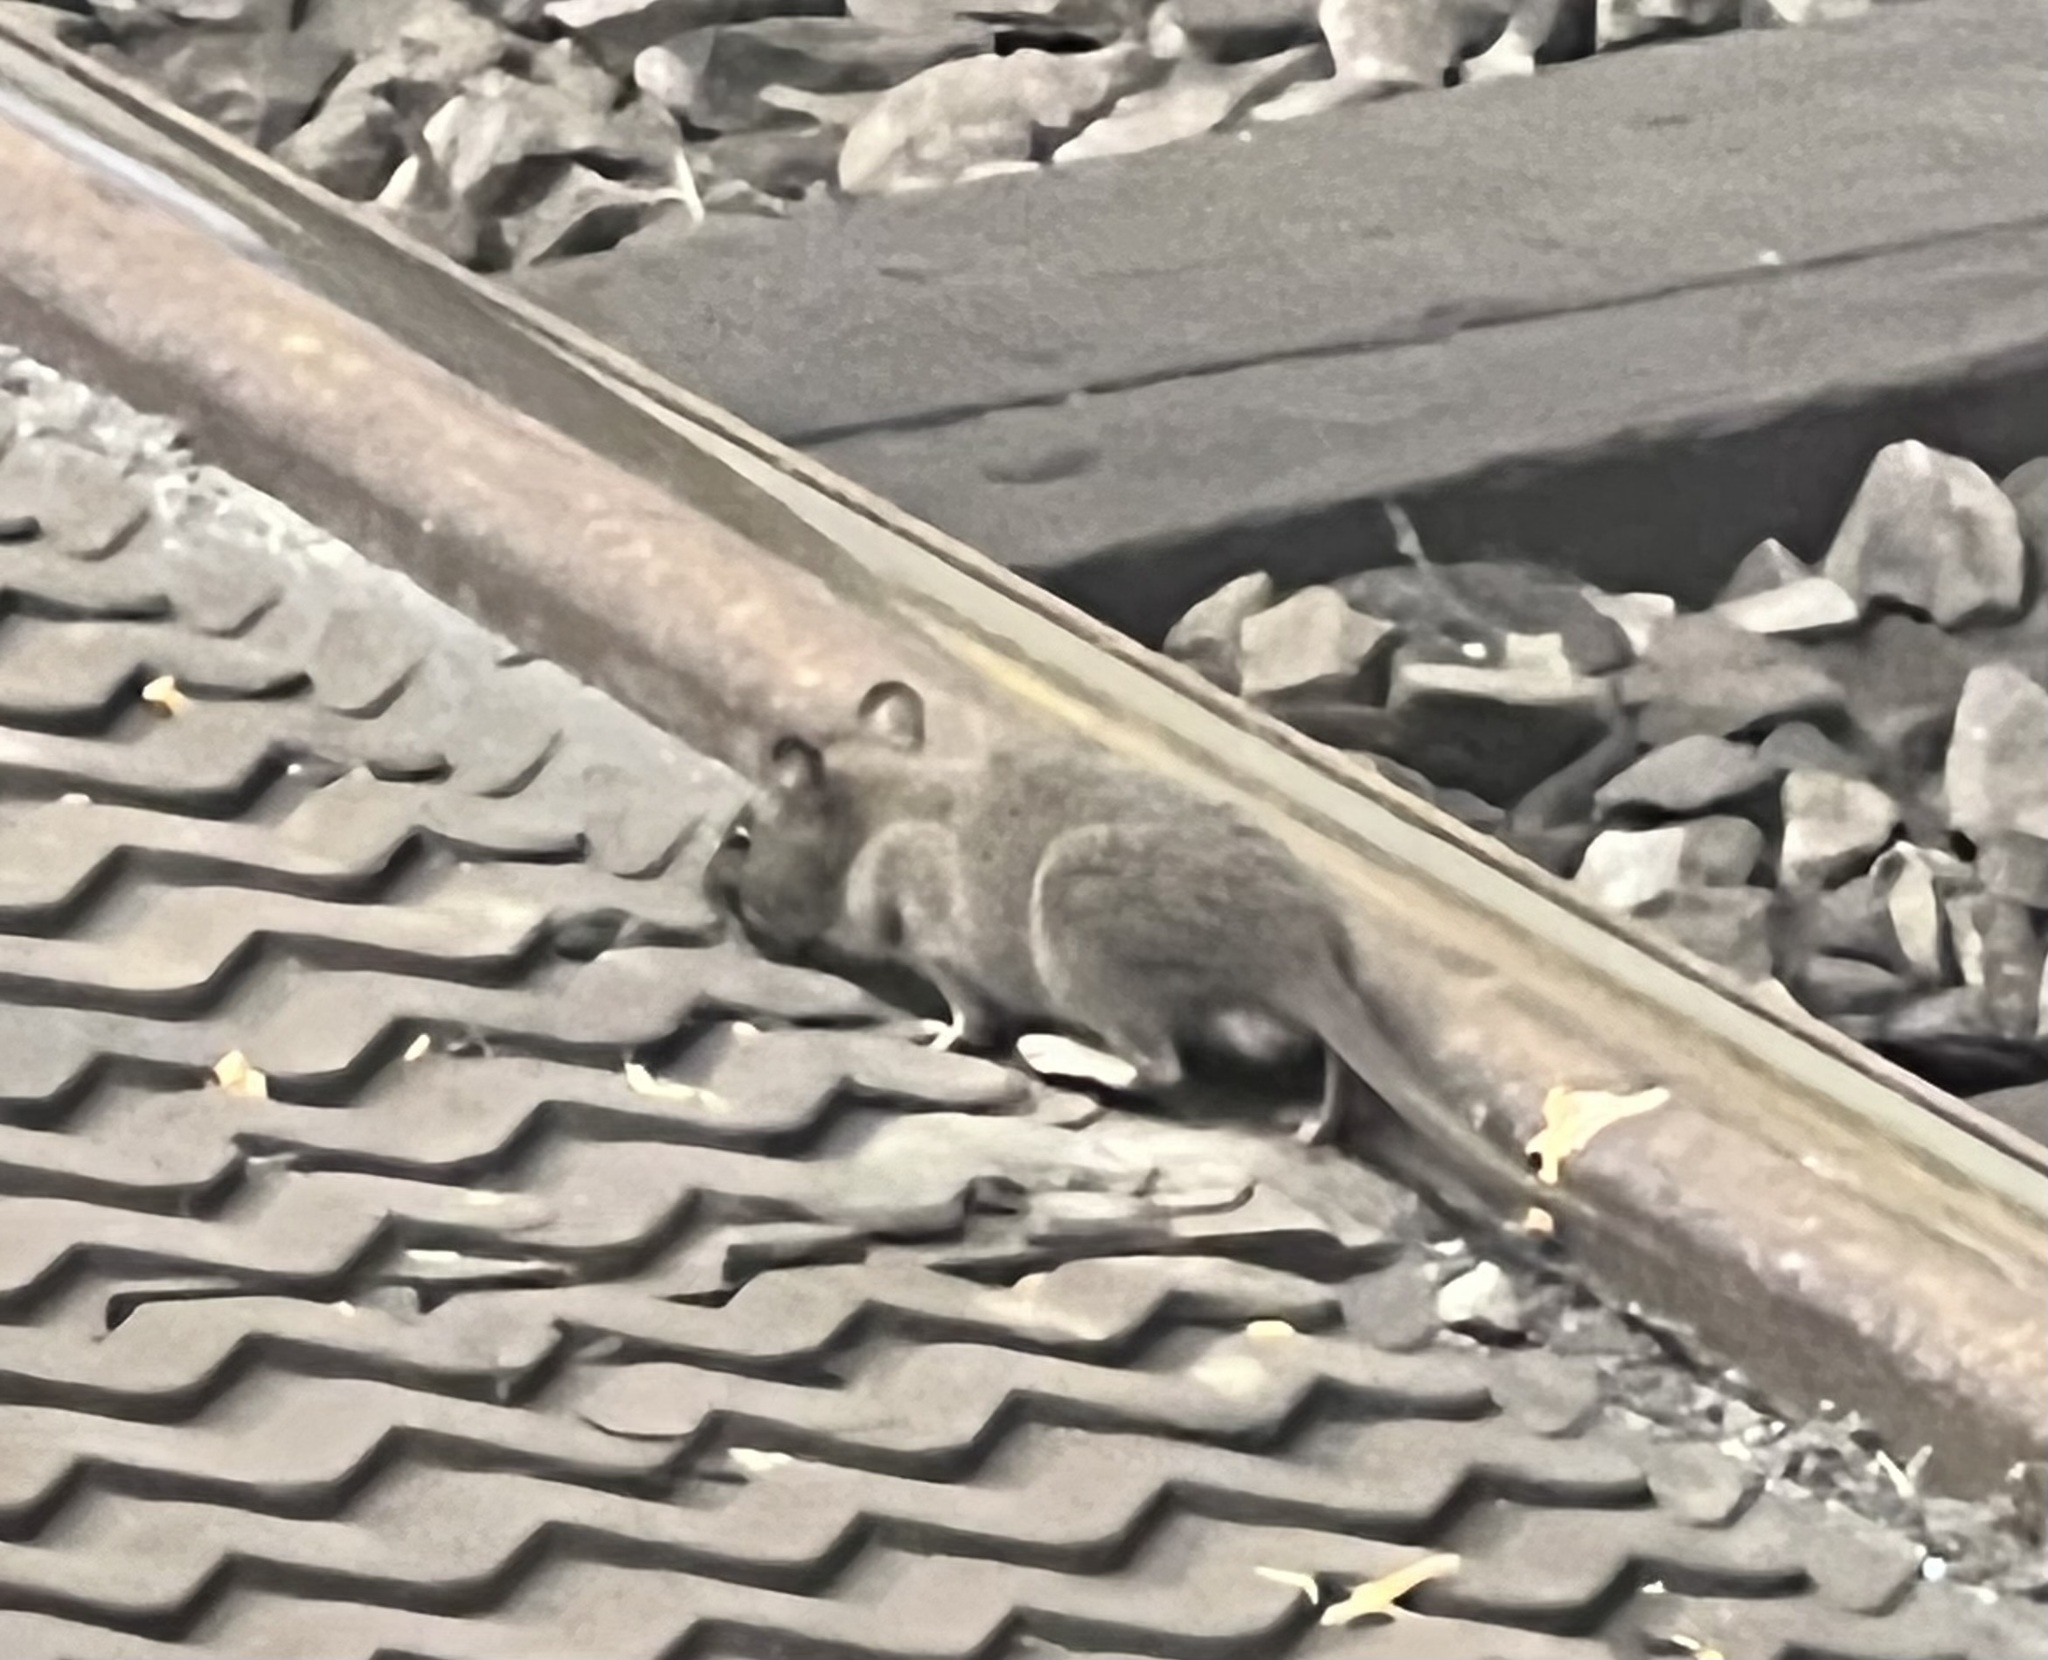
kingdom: Animalia
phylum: Chordata
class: Mammalia
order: Rodentia
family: Muridae
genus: Rattus
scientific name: Rattus norvegicus
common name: Brown rat
